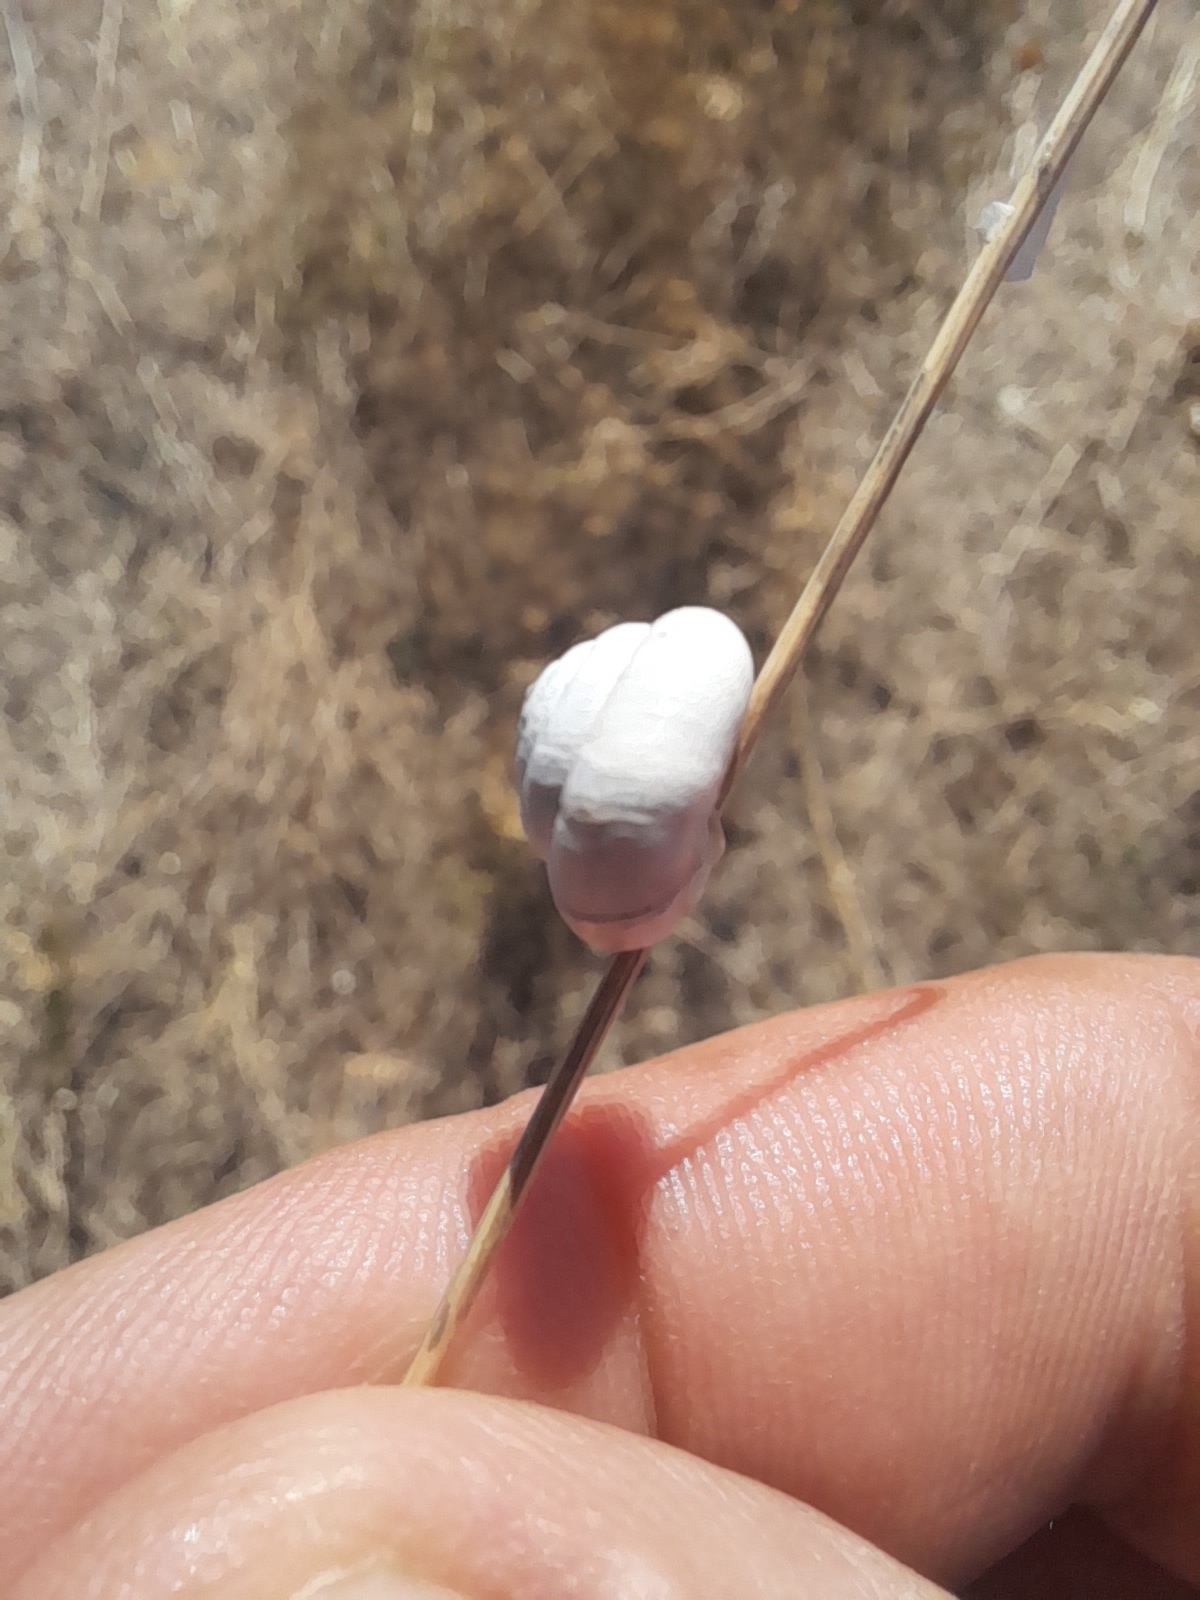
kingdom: Animalia
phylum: Mollusca
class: Gastropoda
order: Stylommatophora
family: Geomitridae
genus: Trochoidea
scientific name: Trochoidea pyramidata
